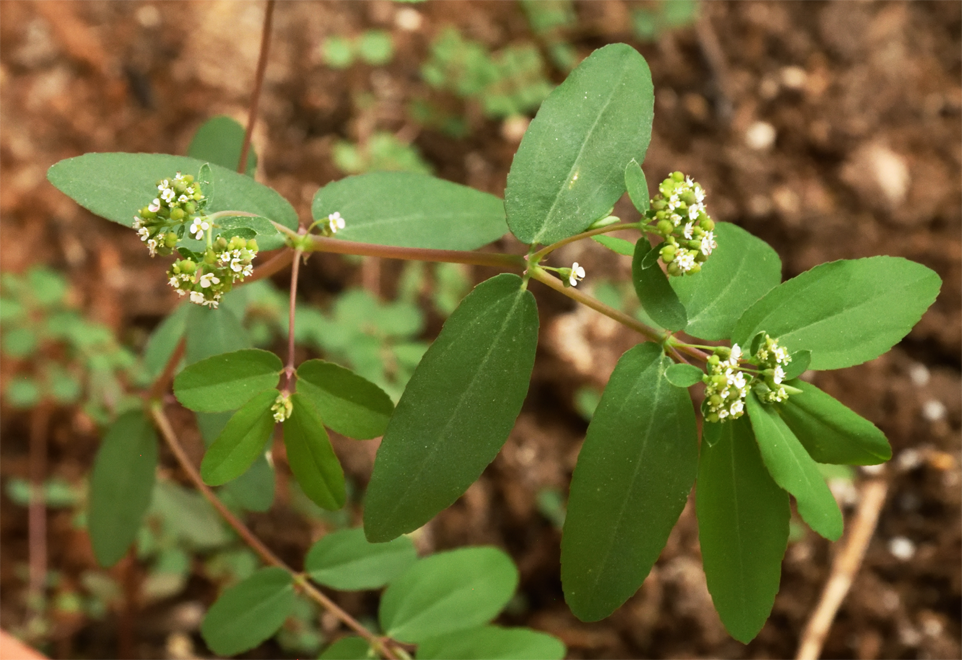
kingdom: Plantae
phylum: Tracheophyta
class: Magnoliopsida
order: Malpighiales
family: Euphorbiaceae
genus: Euphorbia
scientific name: Euphorbia hypericifolia
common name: Graceful sandmat
